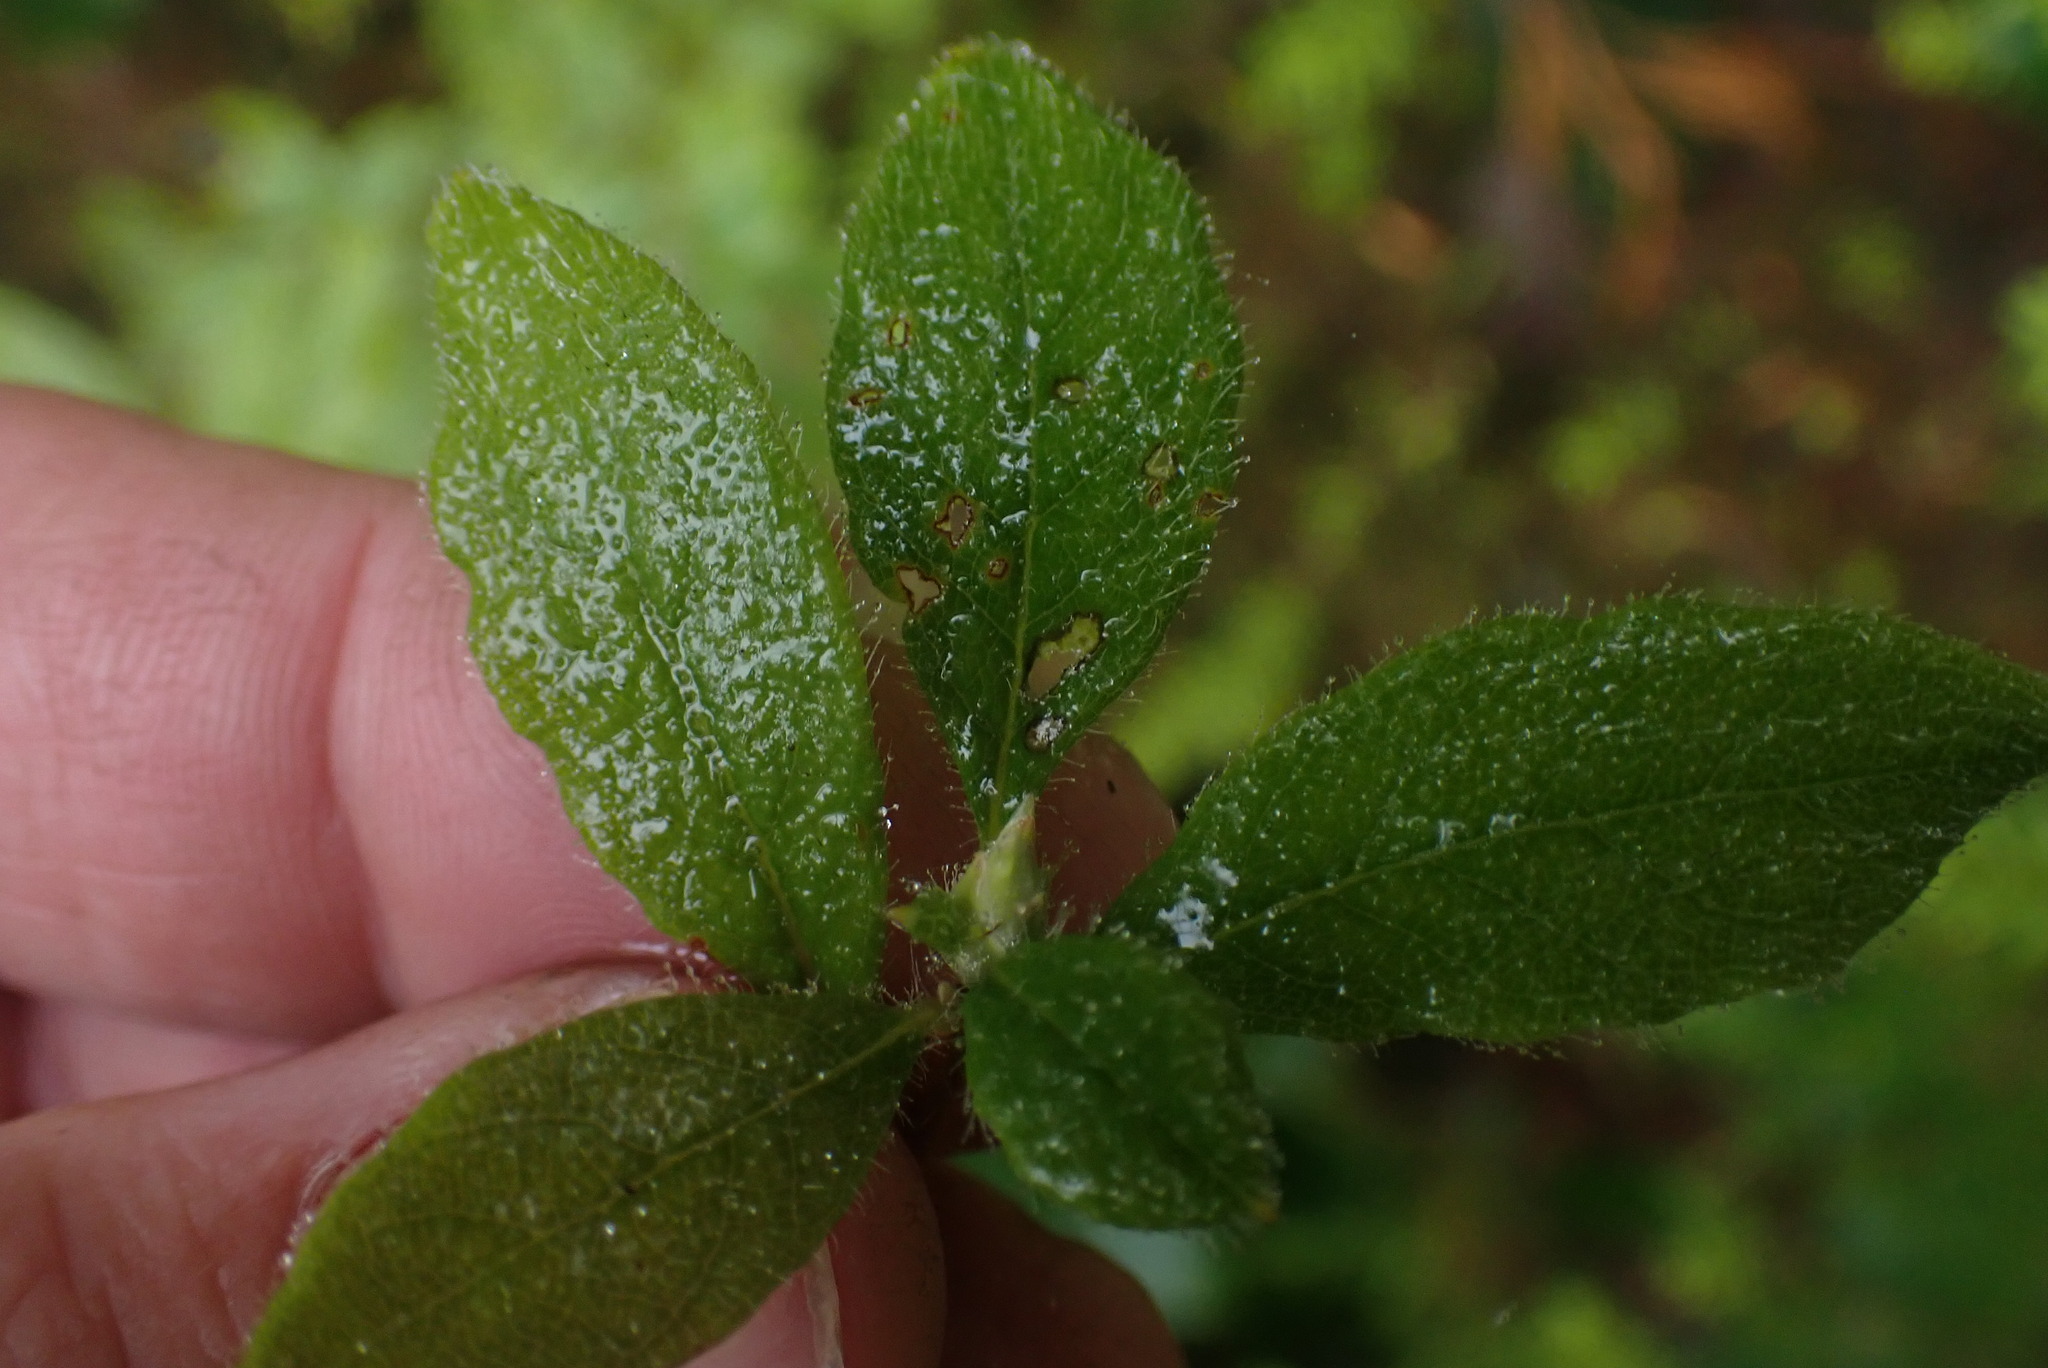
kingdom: Plantae
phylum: Tracheophyta
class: Magnoliopsida
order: Ericales
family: Ericaceae
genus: Rhododendron
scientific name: Rhododendron menziesii
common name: Pacific menziesia
